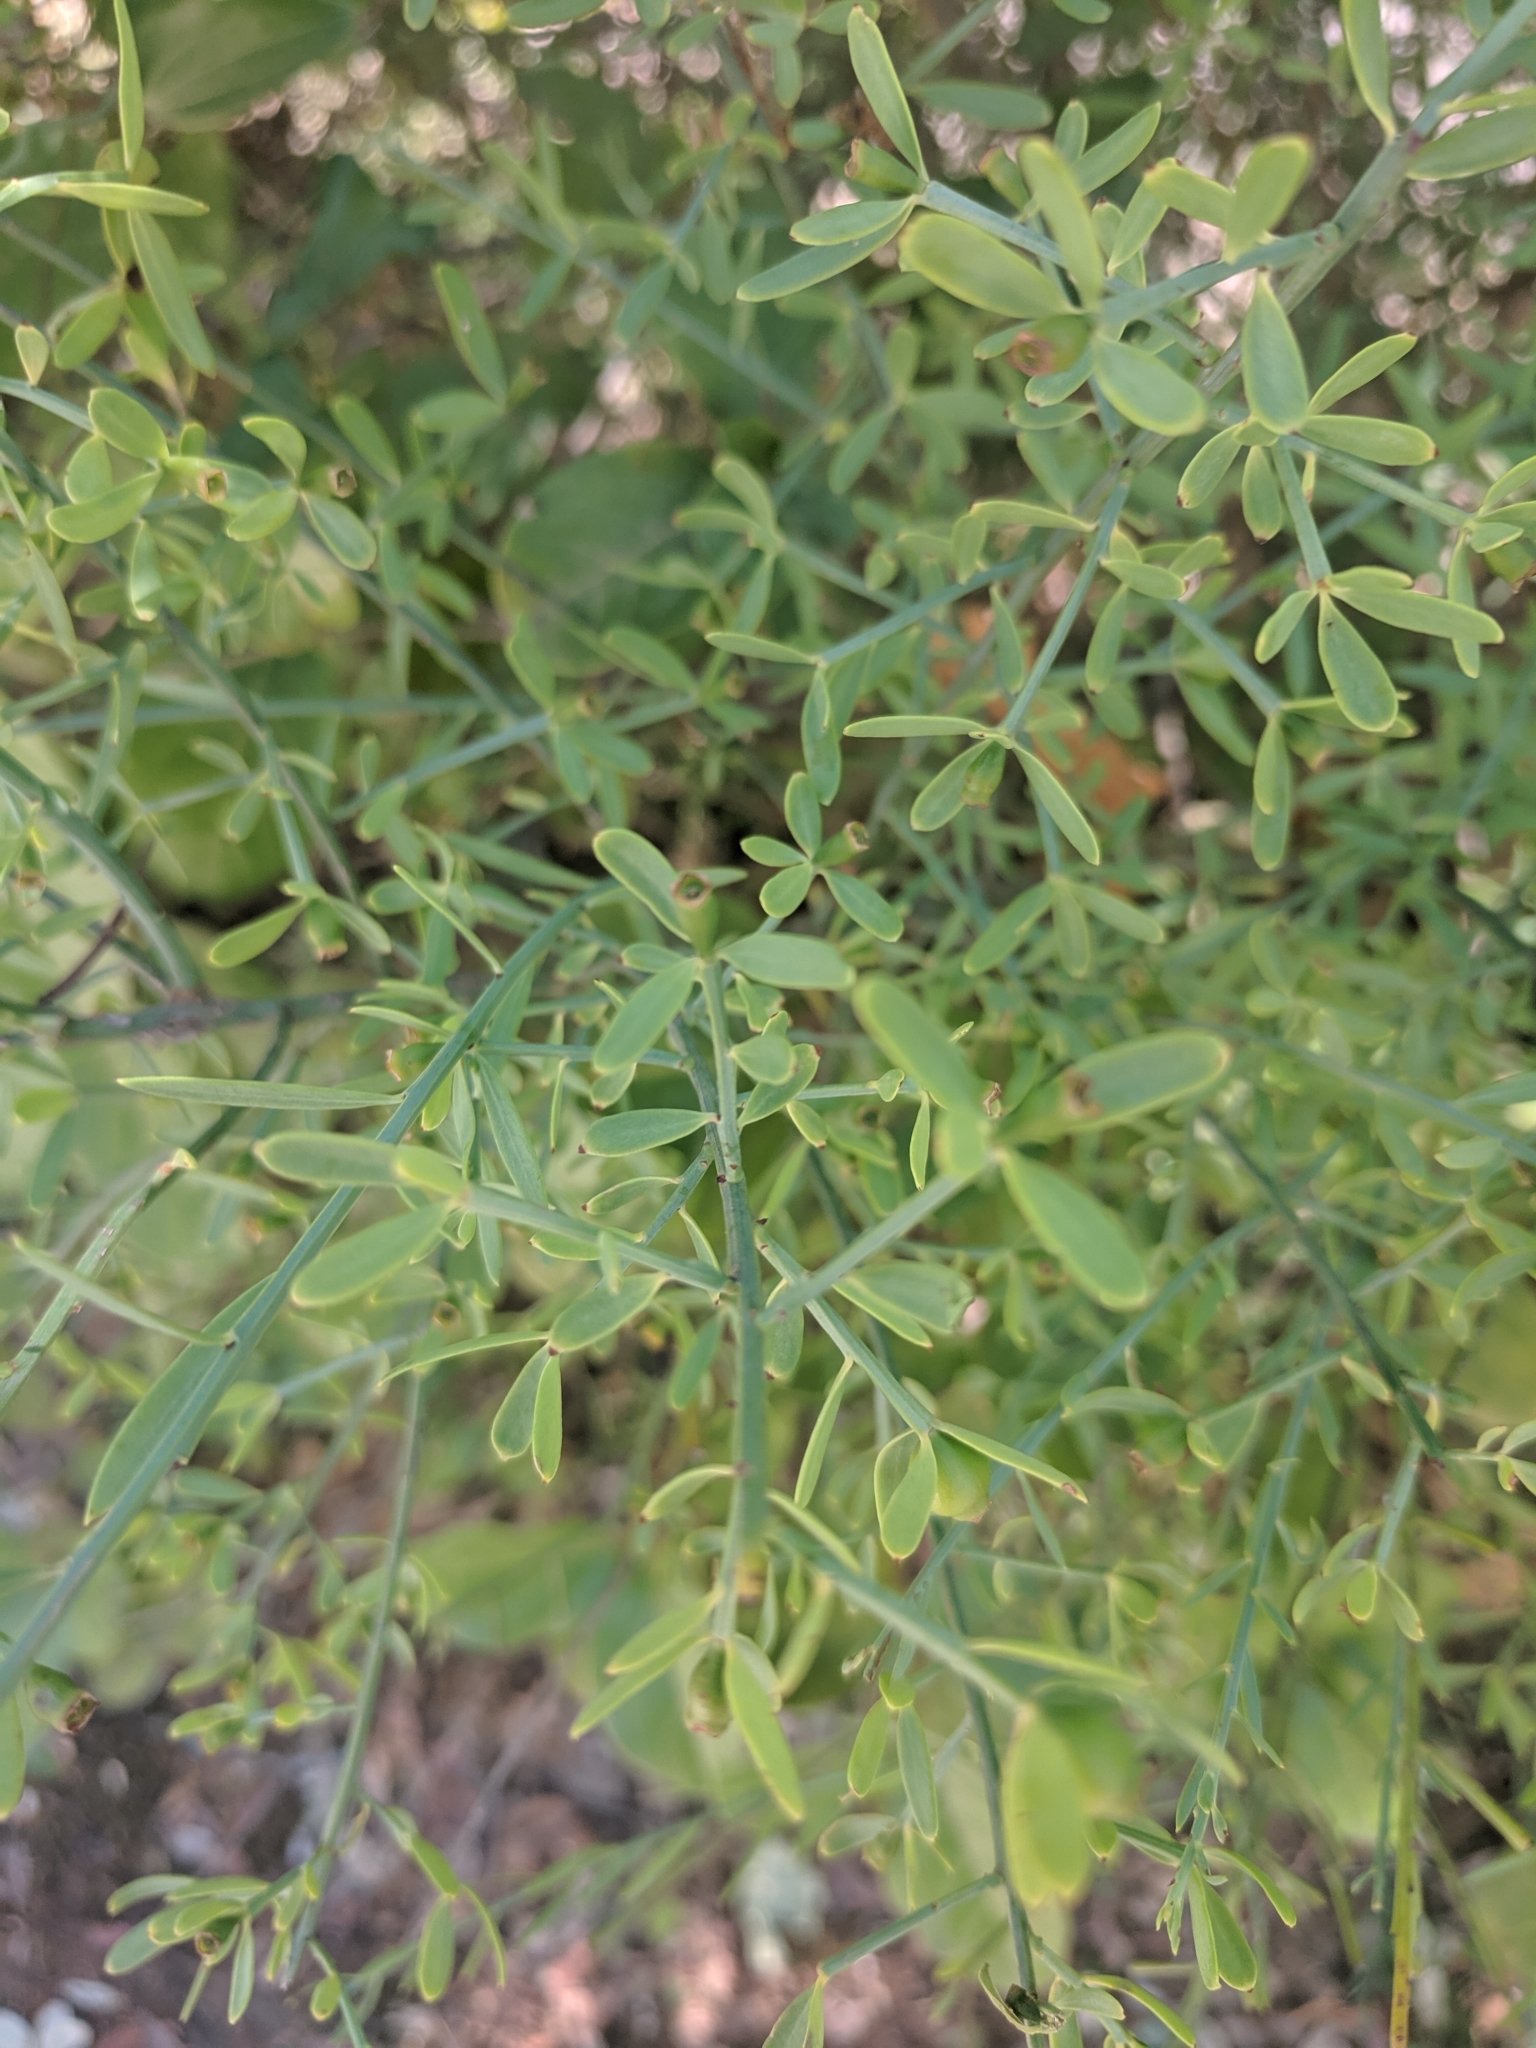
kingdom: Plantae
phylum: Tracheophyta
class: Magnoliopsida
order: Santalales
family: Santalaceae
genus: Osyris
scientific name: Osyris alba
